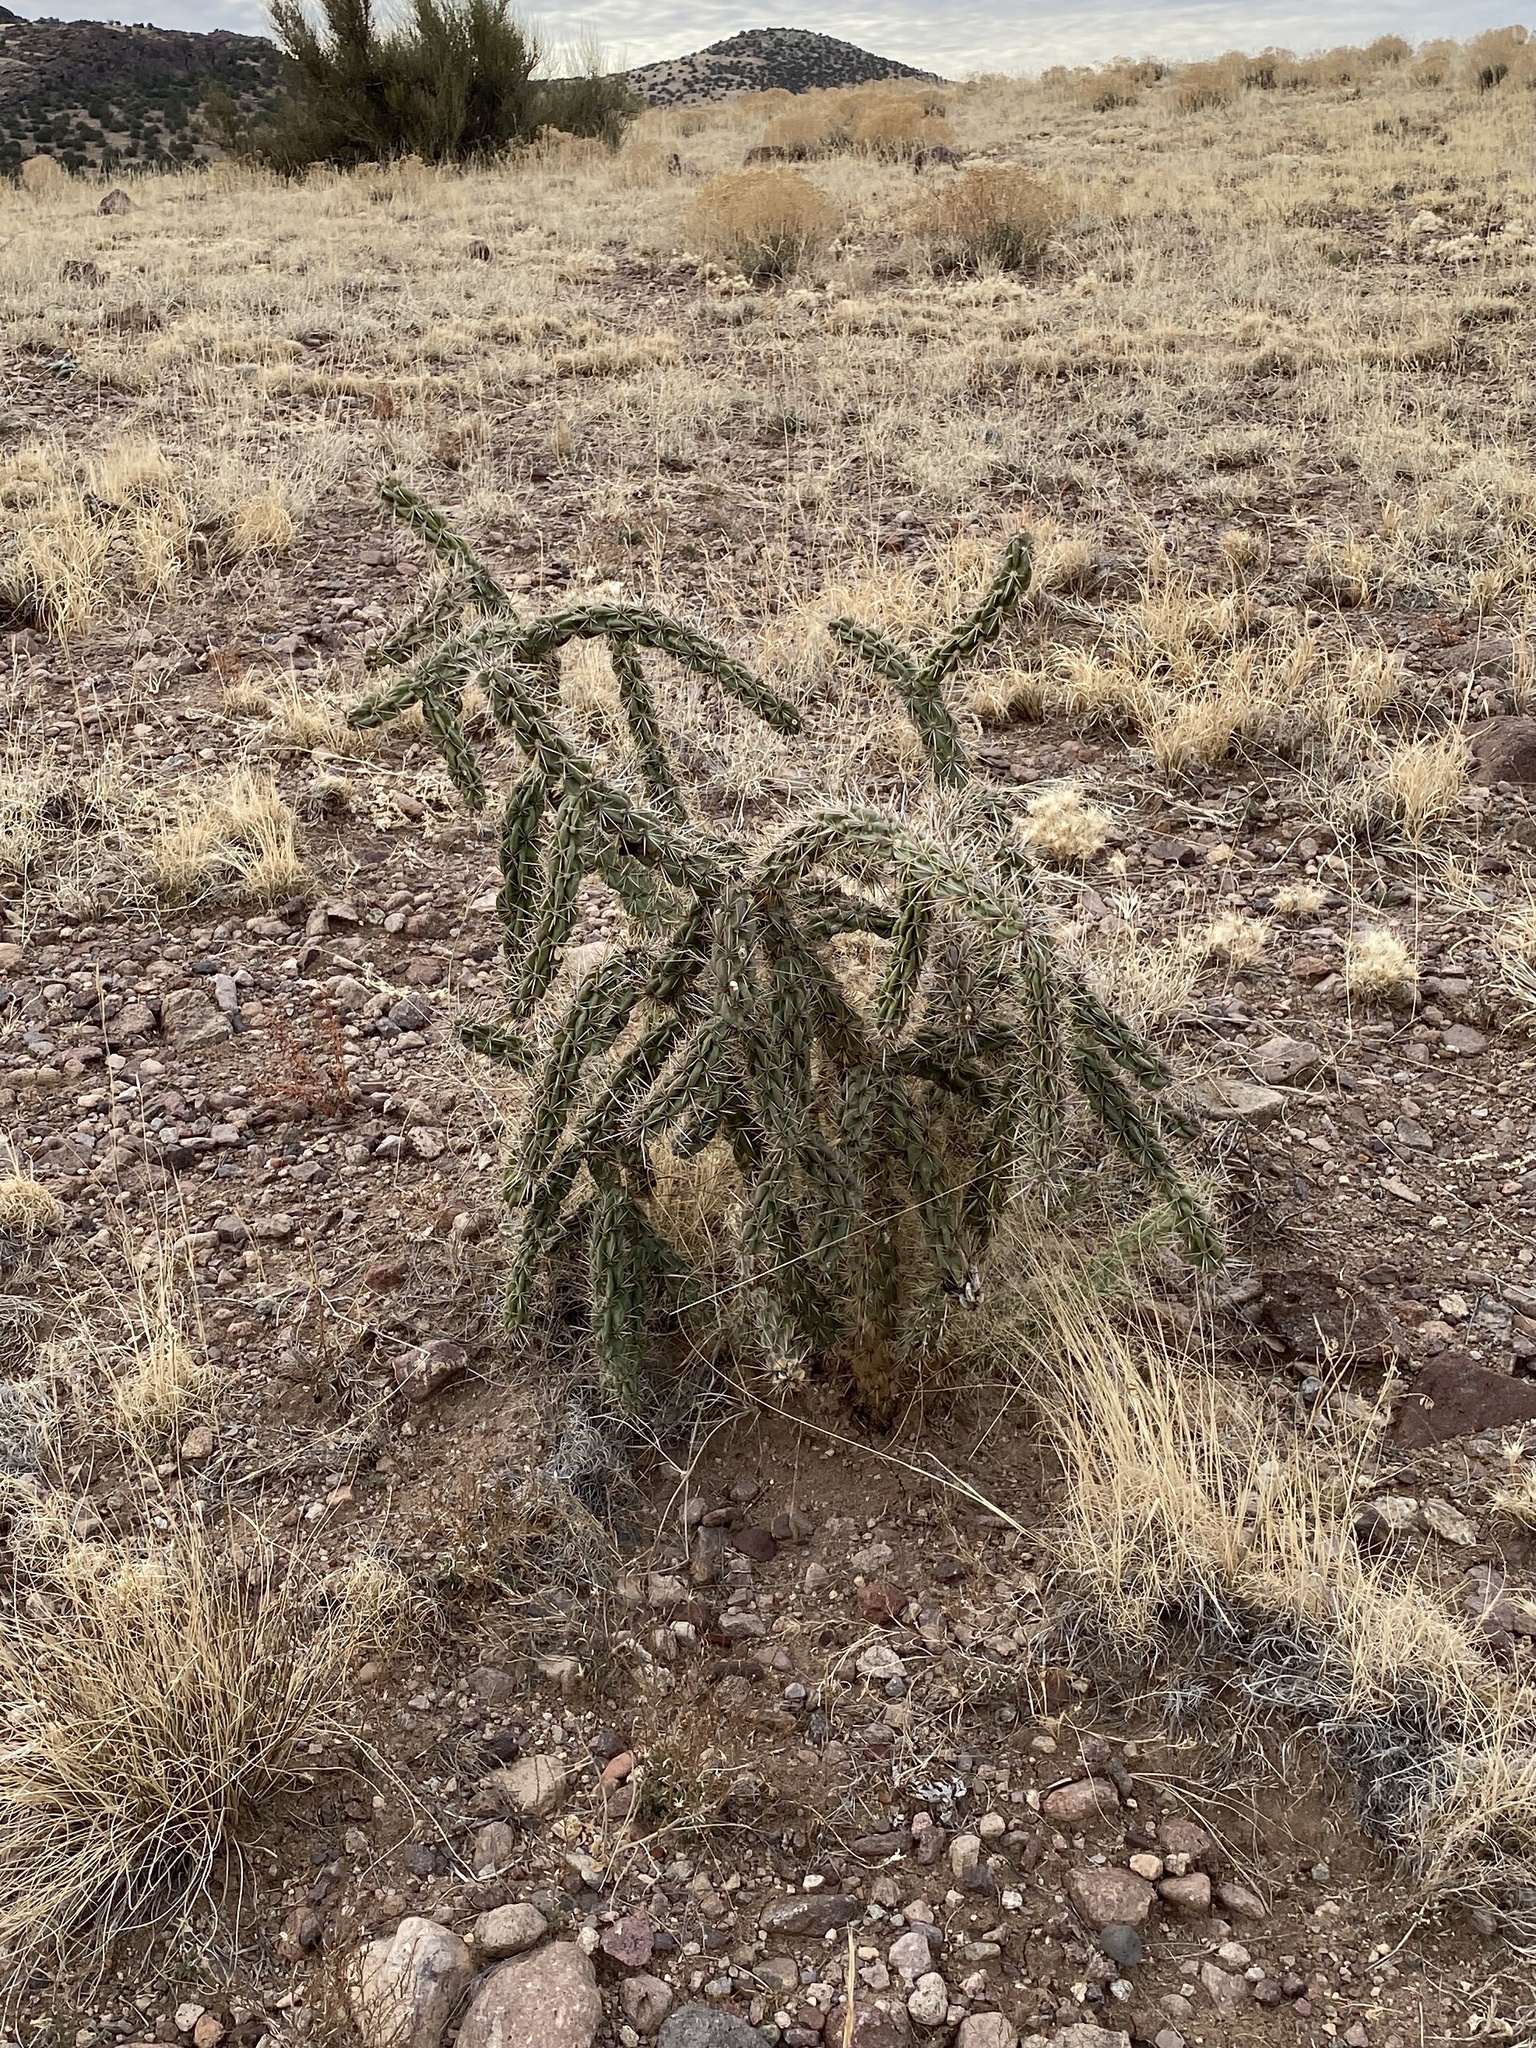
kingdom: Plantae
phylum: Tracheophyta
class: Magnoliopsida
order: Caryophyllales
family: Cactaceae
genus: Cylindropuntia
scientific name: Cylindropuntia imbricata
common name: Candelabrum cactus
